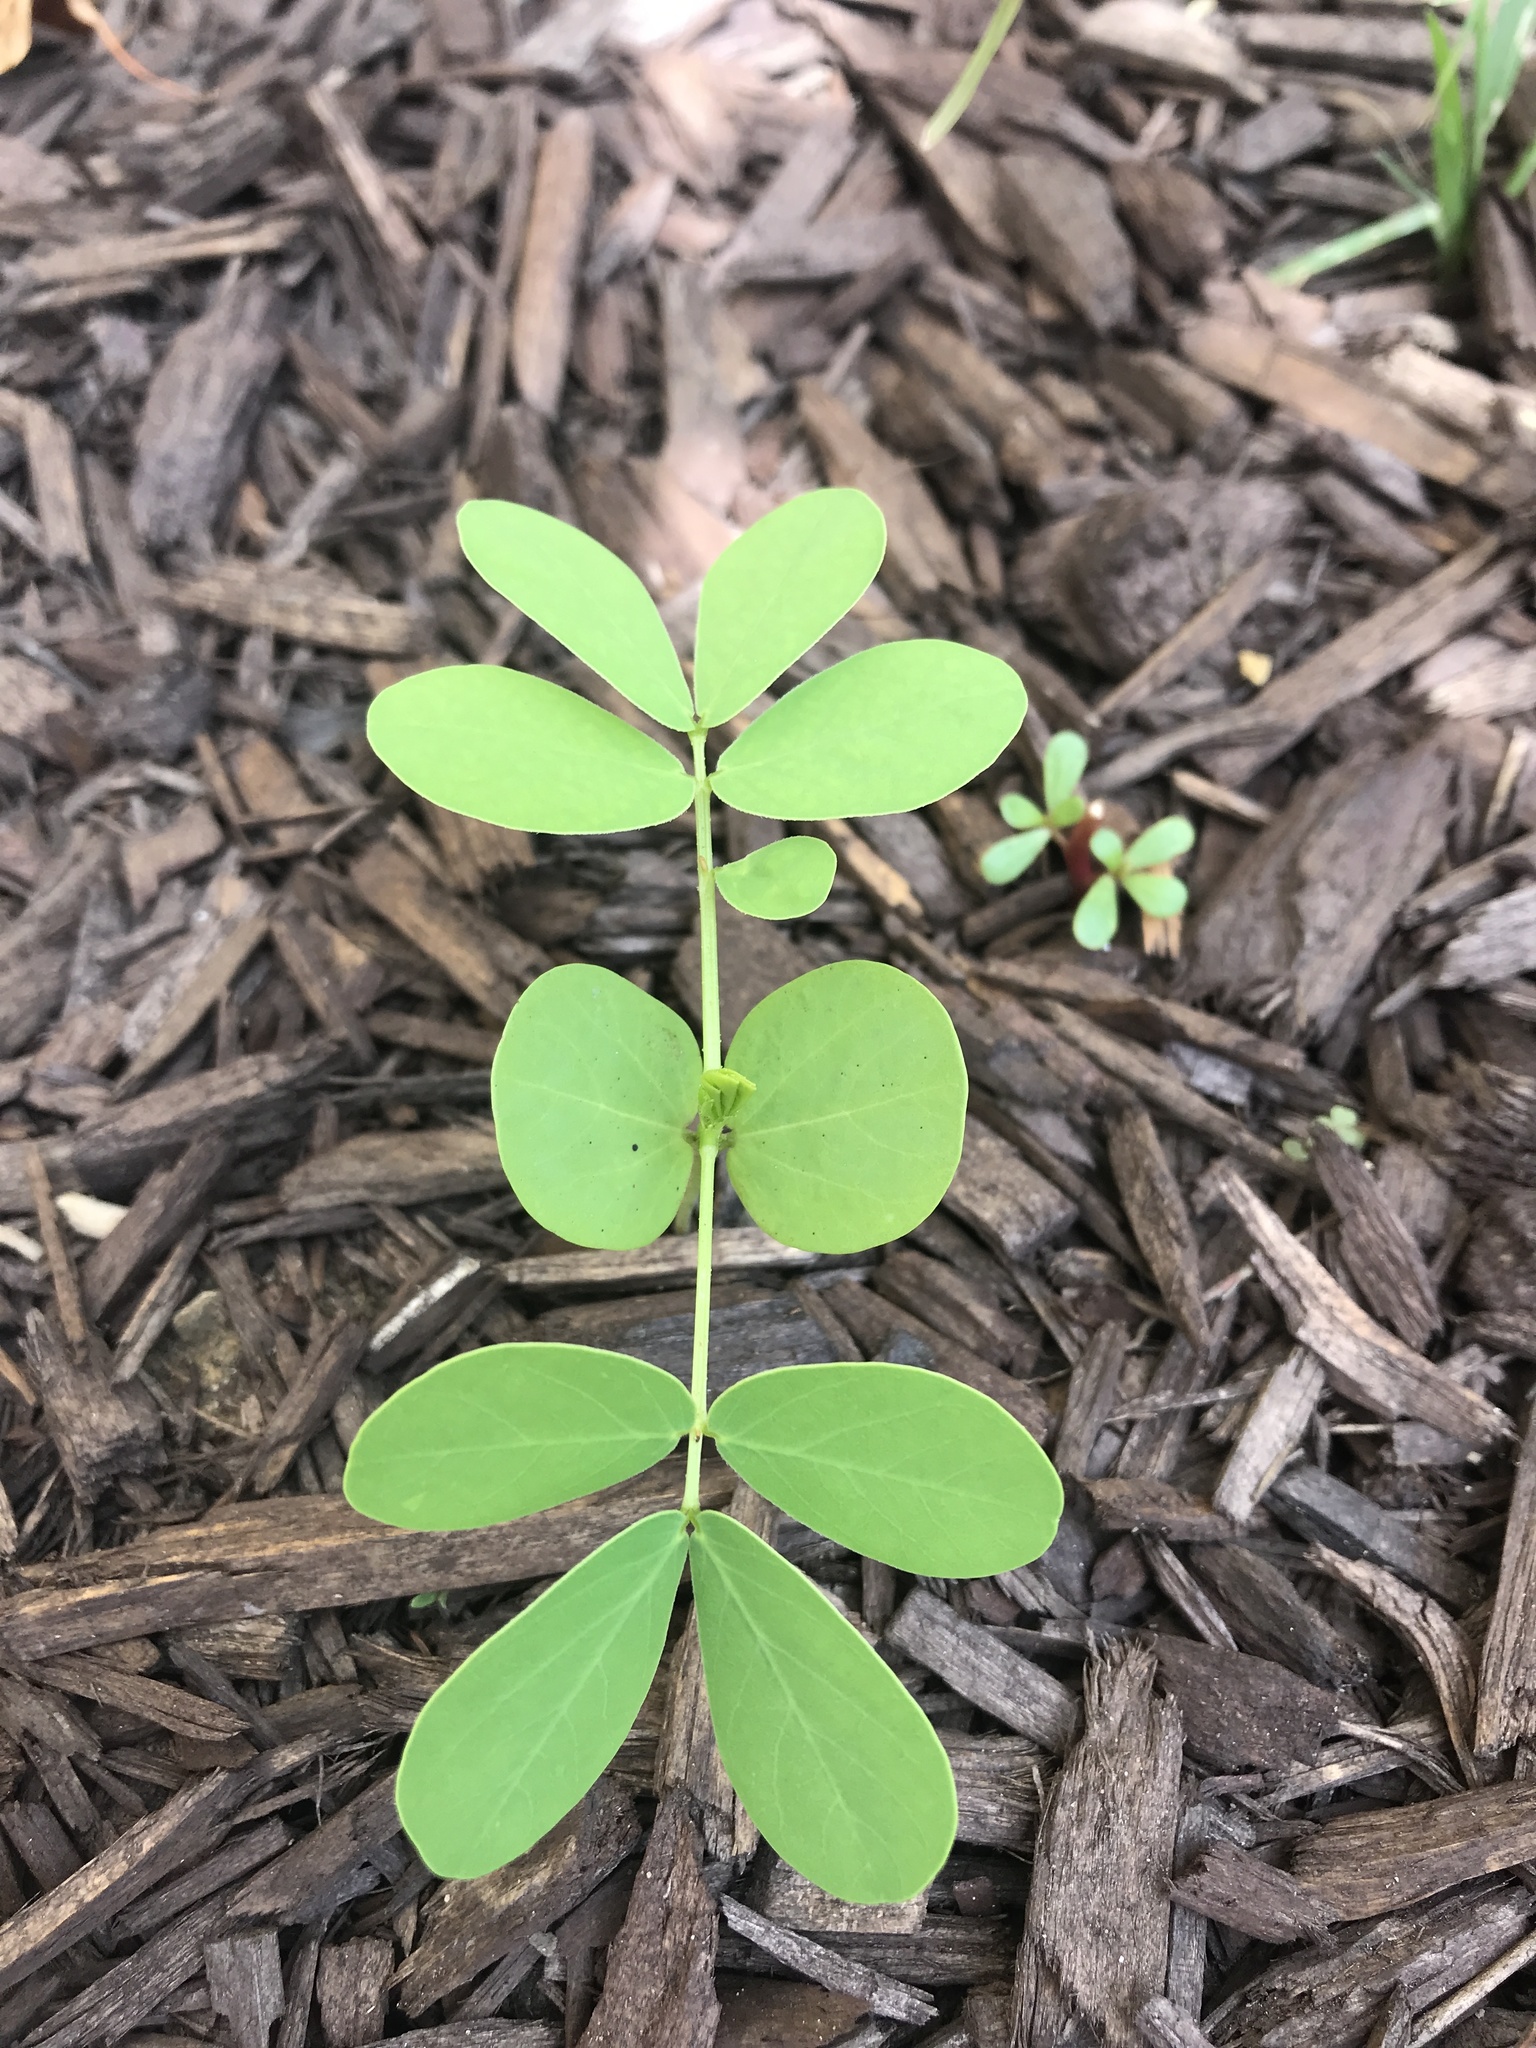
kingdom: Plantae
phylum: Tracheophyta
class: Magnoliopsida
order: Fabales
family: Fabaceae
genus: Senna
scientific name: Senna obtusifolia
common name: Java-bean
